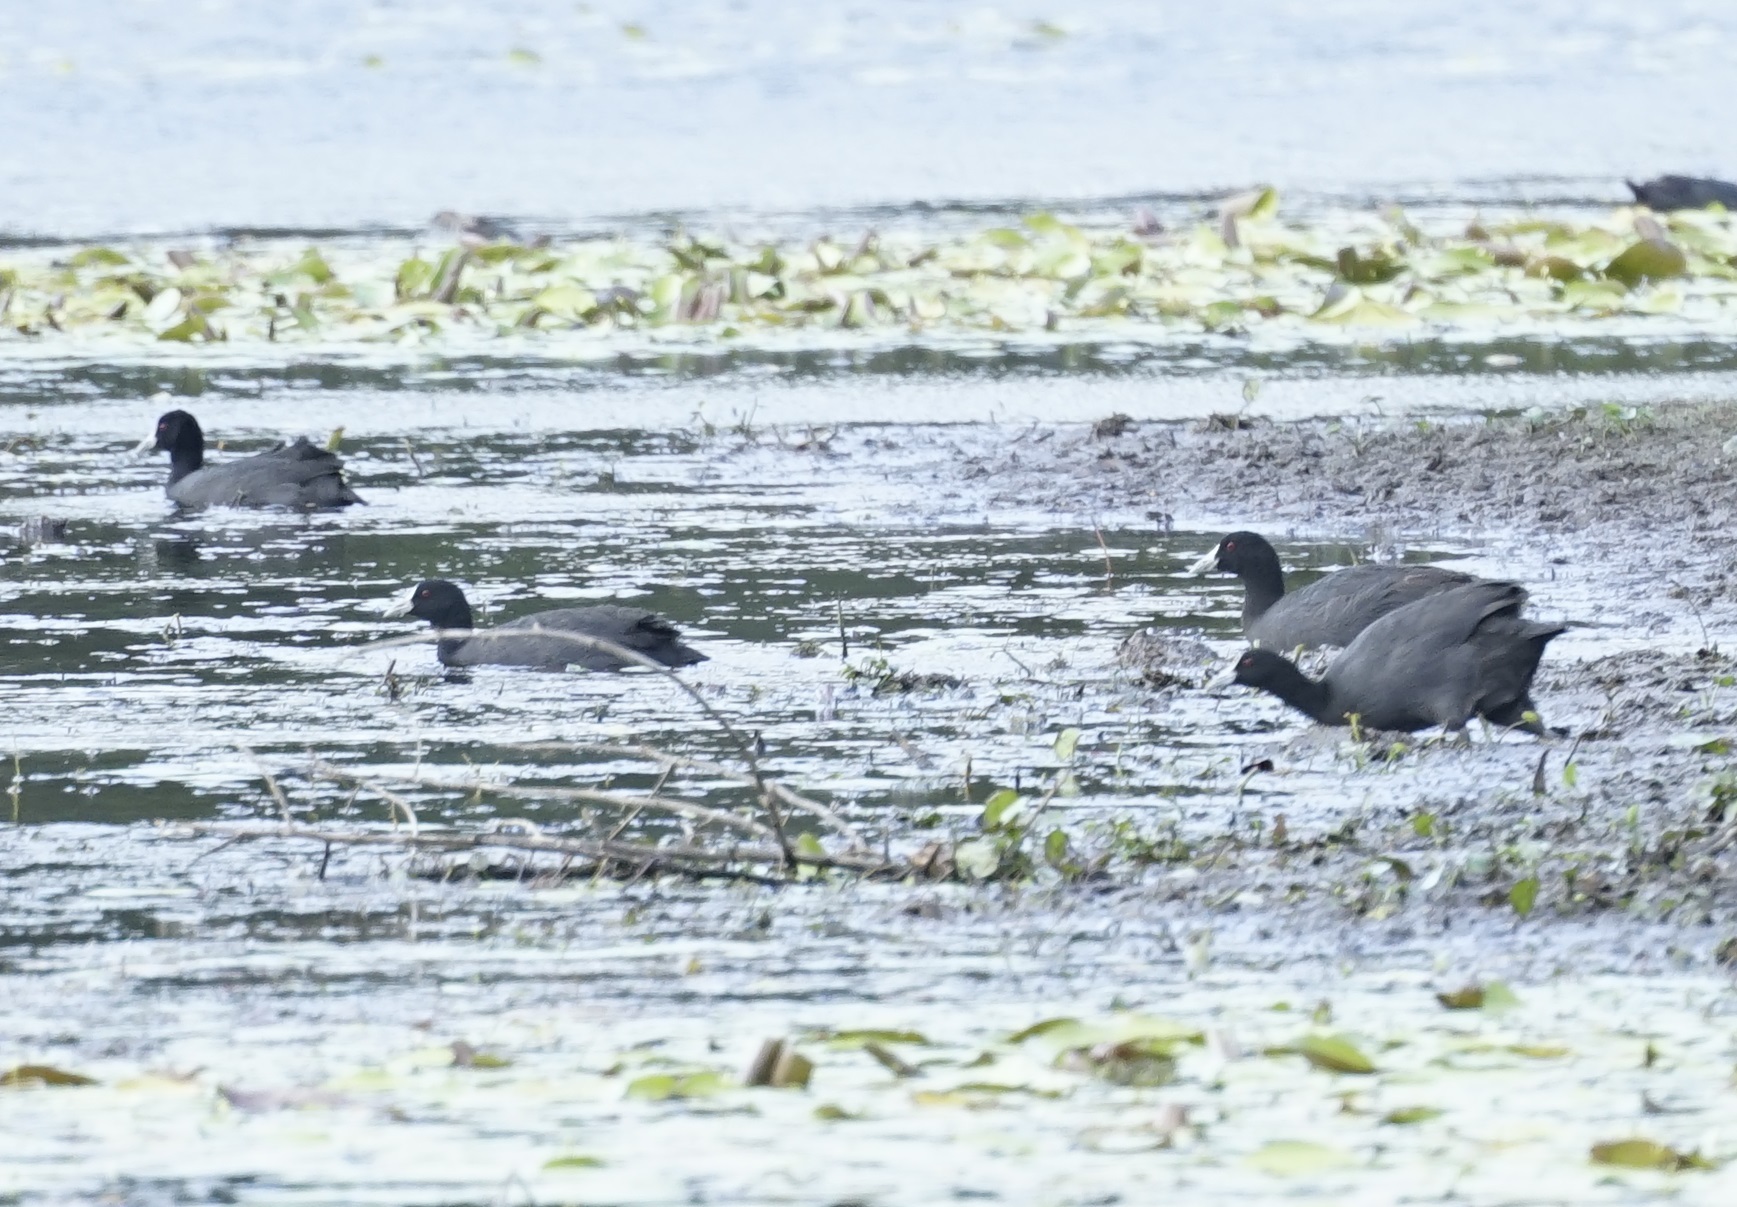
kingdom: Animalia
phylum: Chordata
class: Aves
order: Gruiformes
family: Rallidae
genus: Fulica
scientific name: Fulica atra
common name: Eurasian coot
